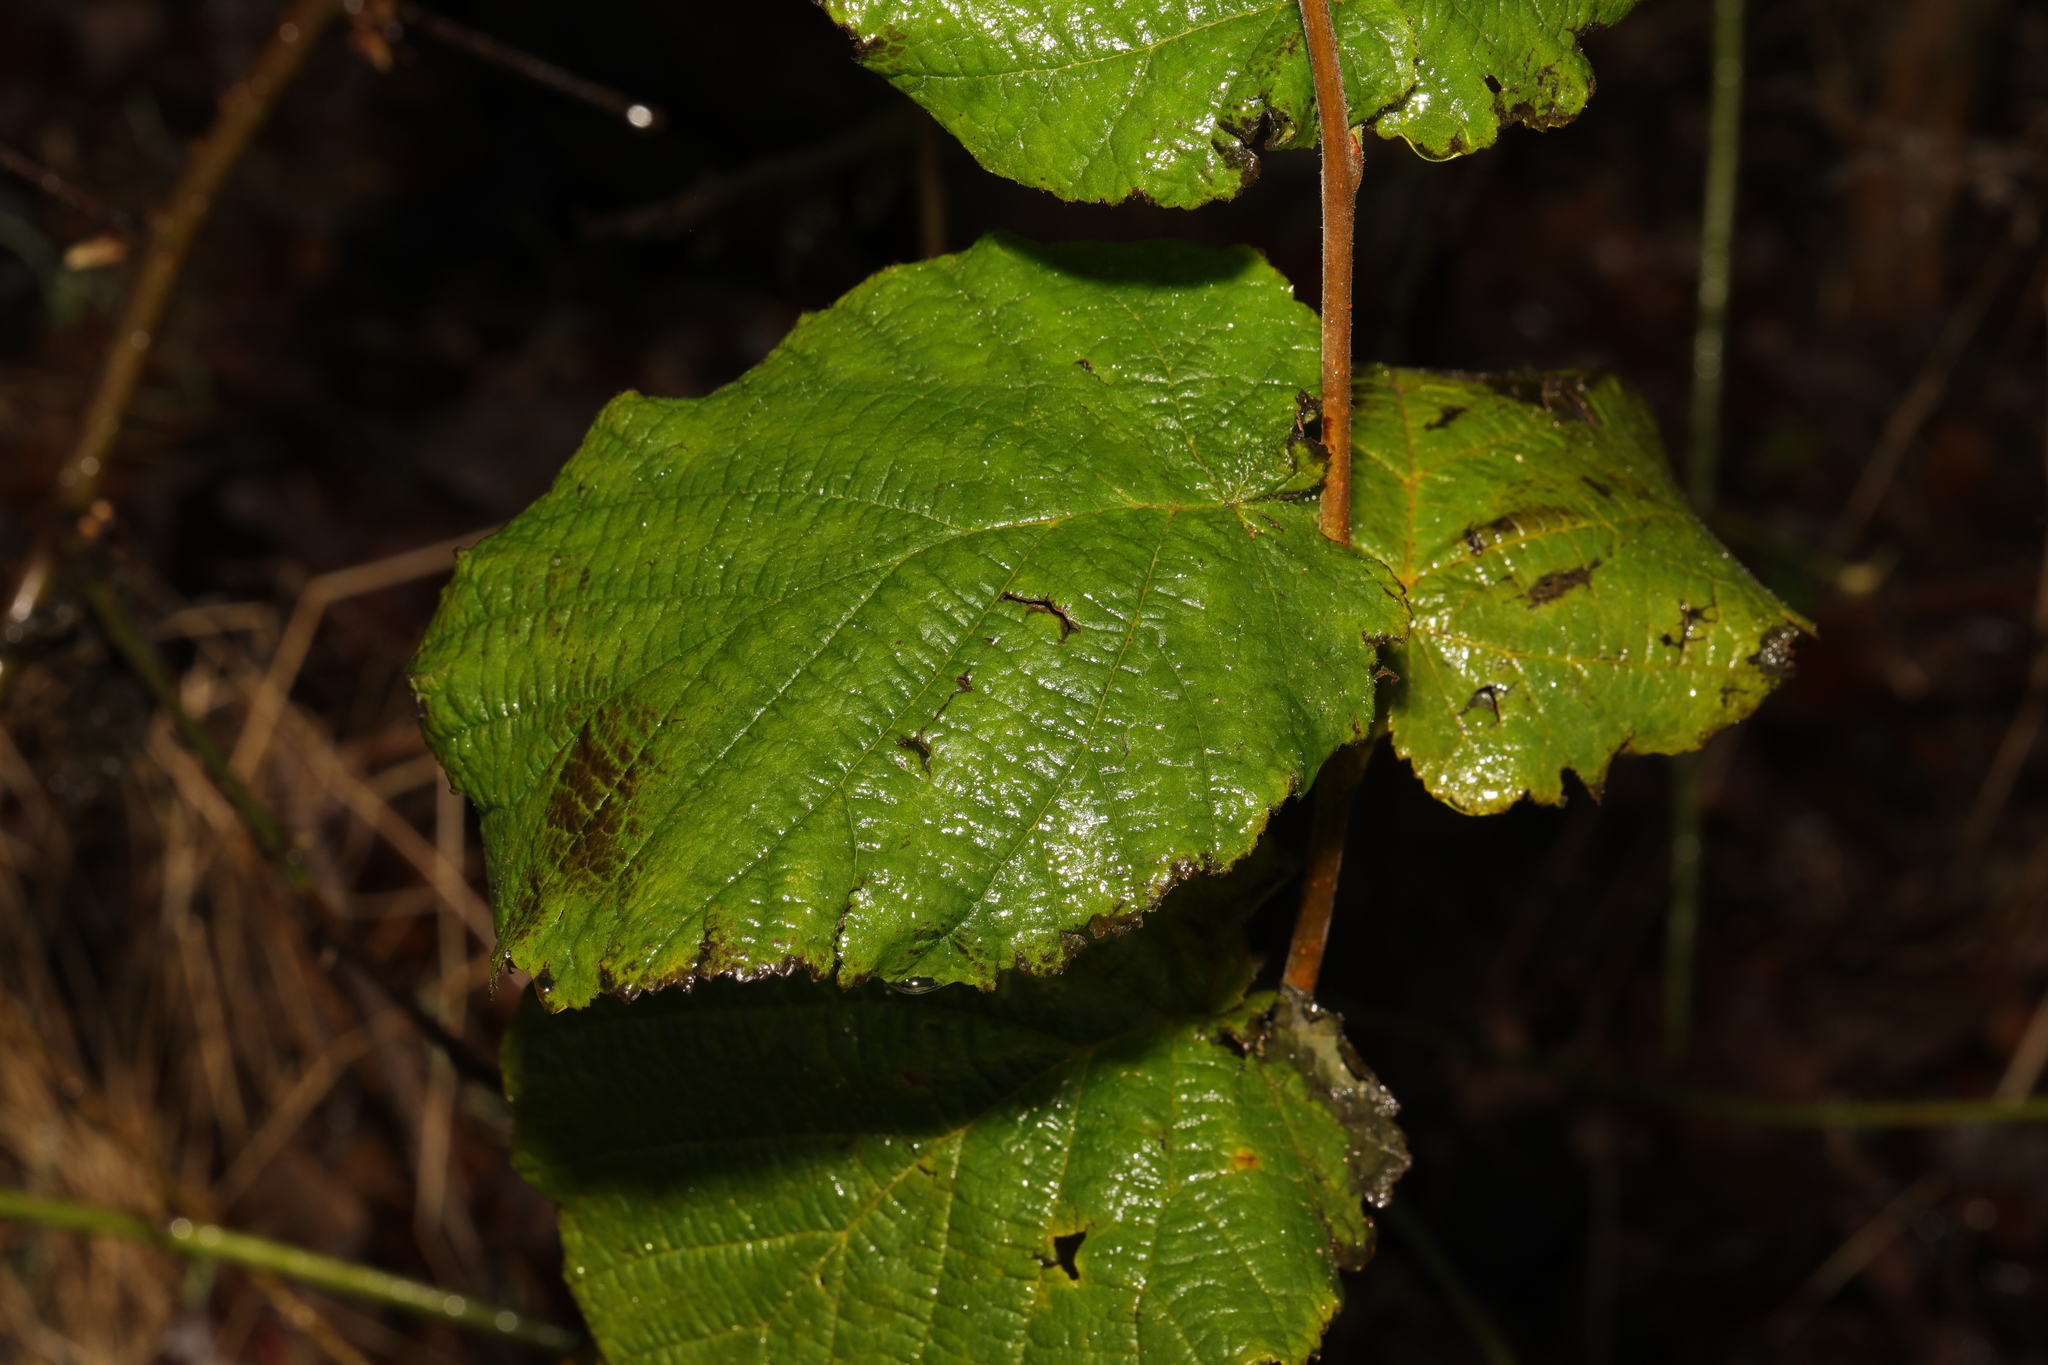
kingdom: Plantae
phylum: Tracheophyta
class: Magnoliopsida
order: Fagales
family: Betulaceae
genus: Corylus
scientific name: Corylus avellana
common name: European hazel
